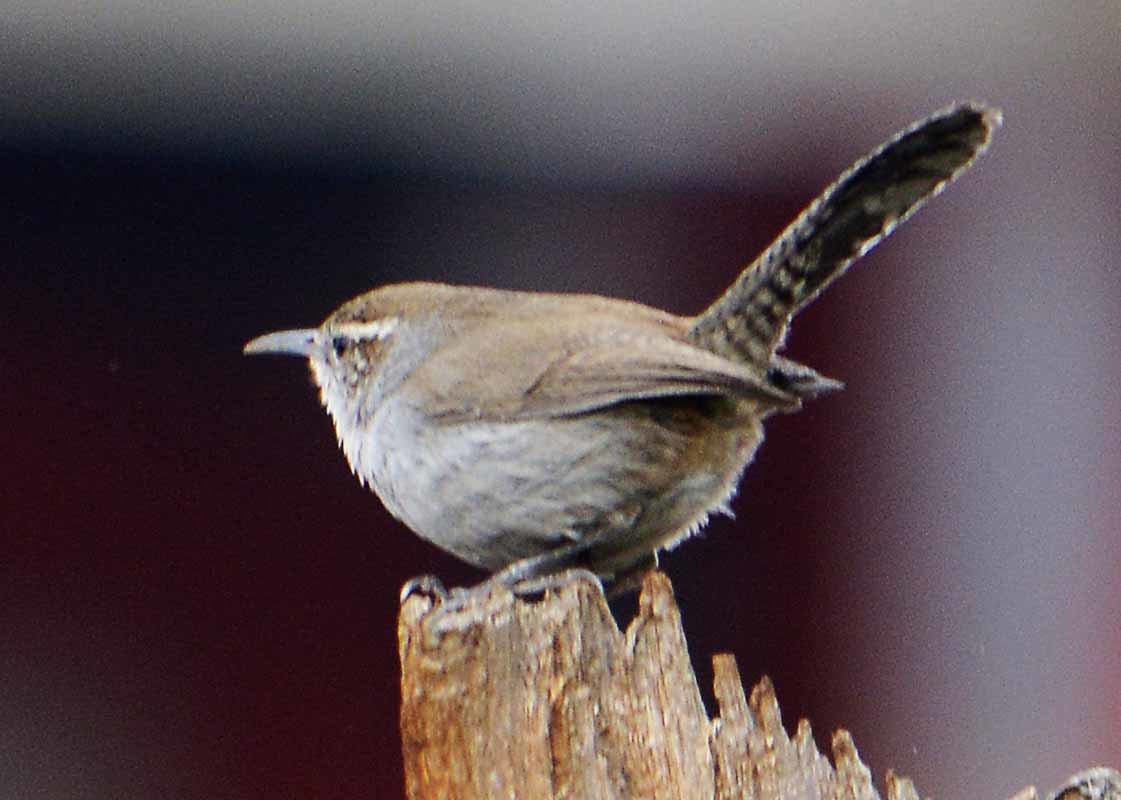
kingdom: Animalia
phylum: Chordata
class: Aves
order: Passeriformes
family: Troglodytidae
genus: Thryomanes
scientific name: Thryomanes bewickii
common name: Bewick's wren
